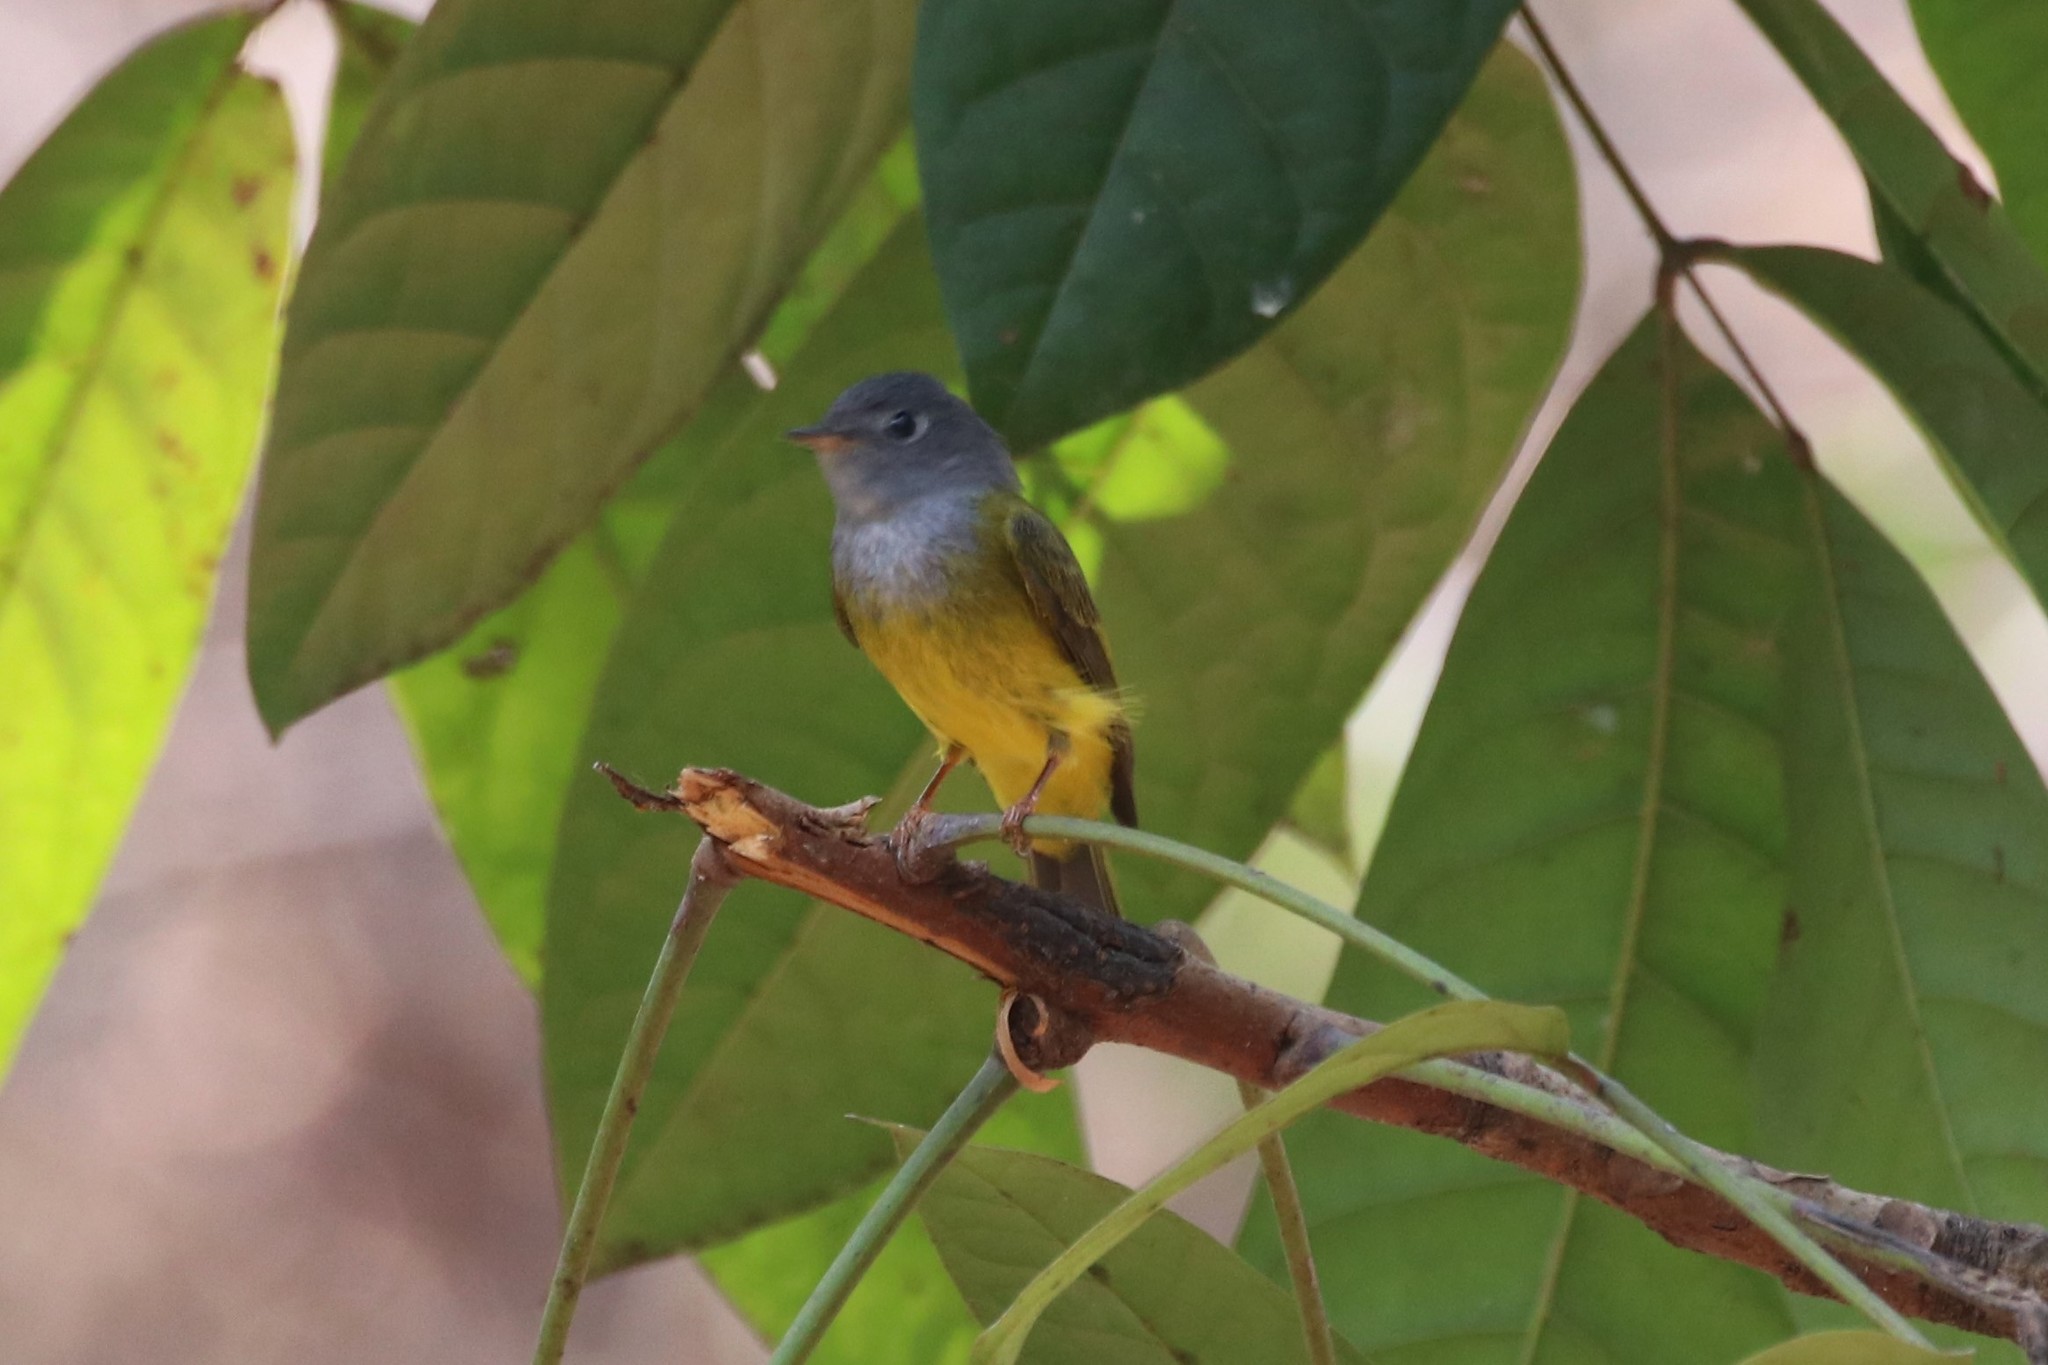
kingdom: Animalia
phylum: Chordata
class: Aves
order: Passeriformes
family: Stenostiridae
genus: Culicicapa
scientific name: Culicicapa ceylonensis
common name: Grey-headed canary-flycatcher
